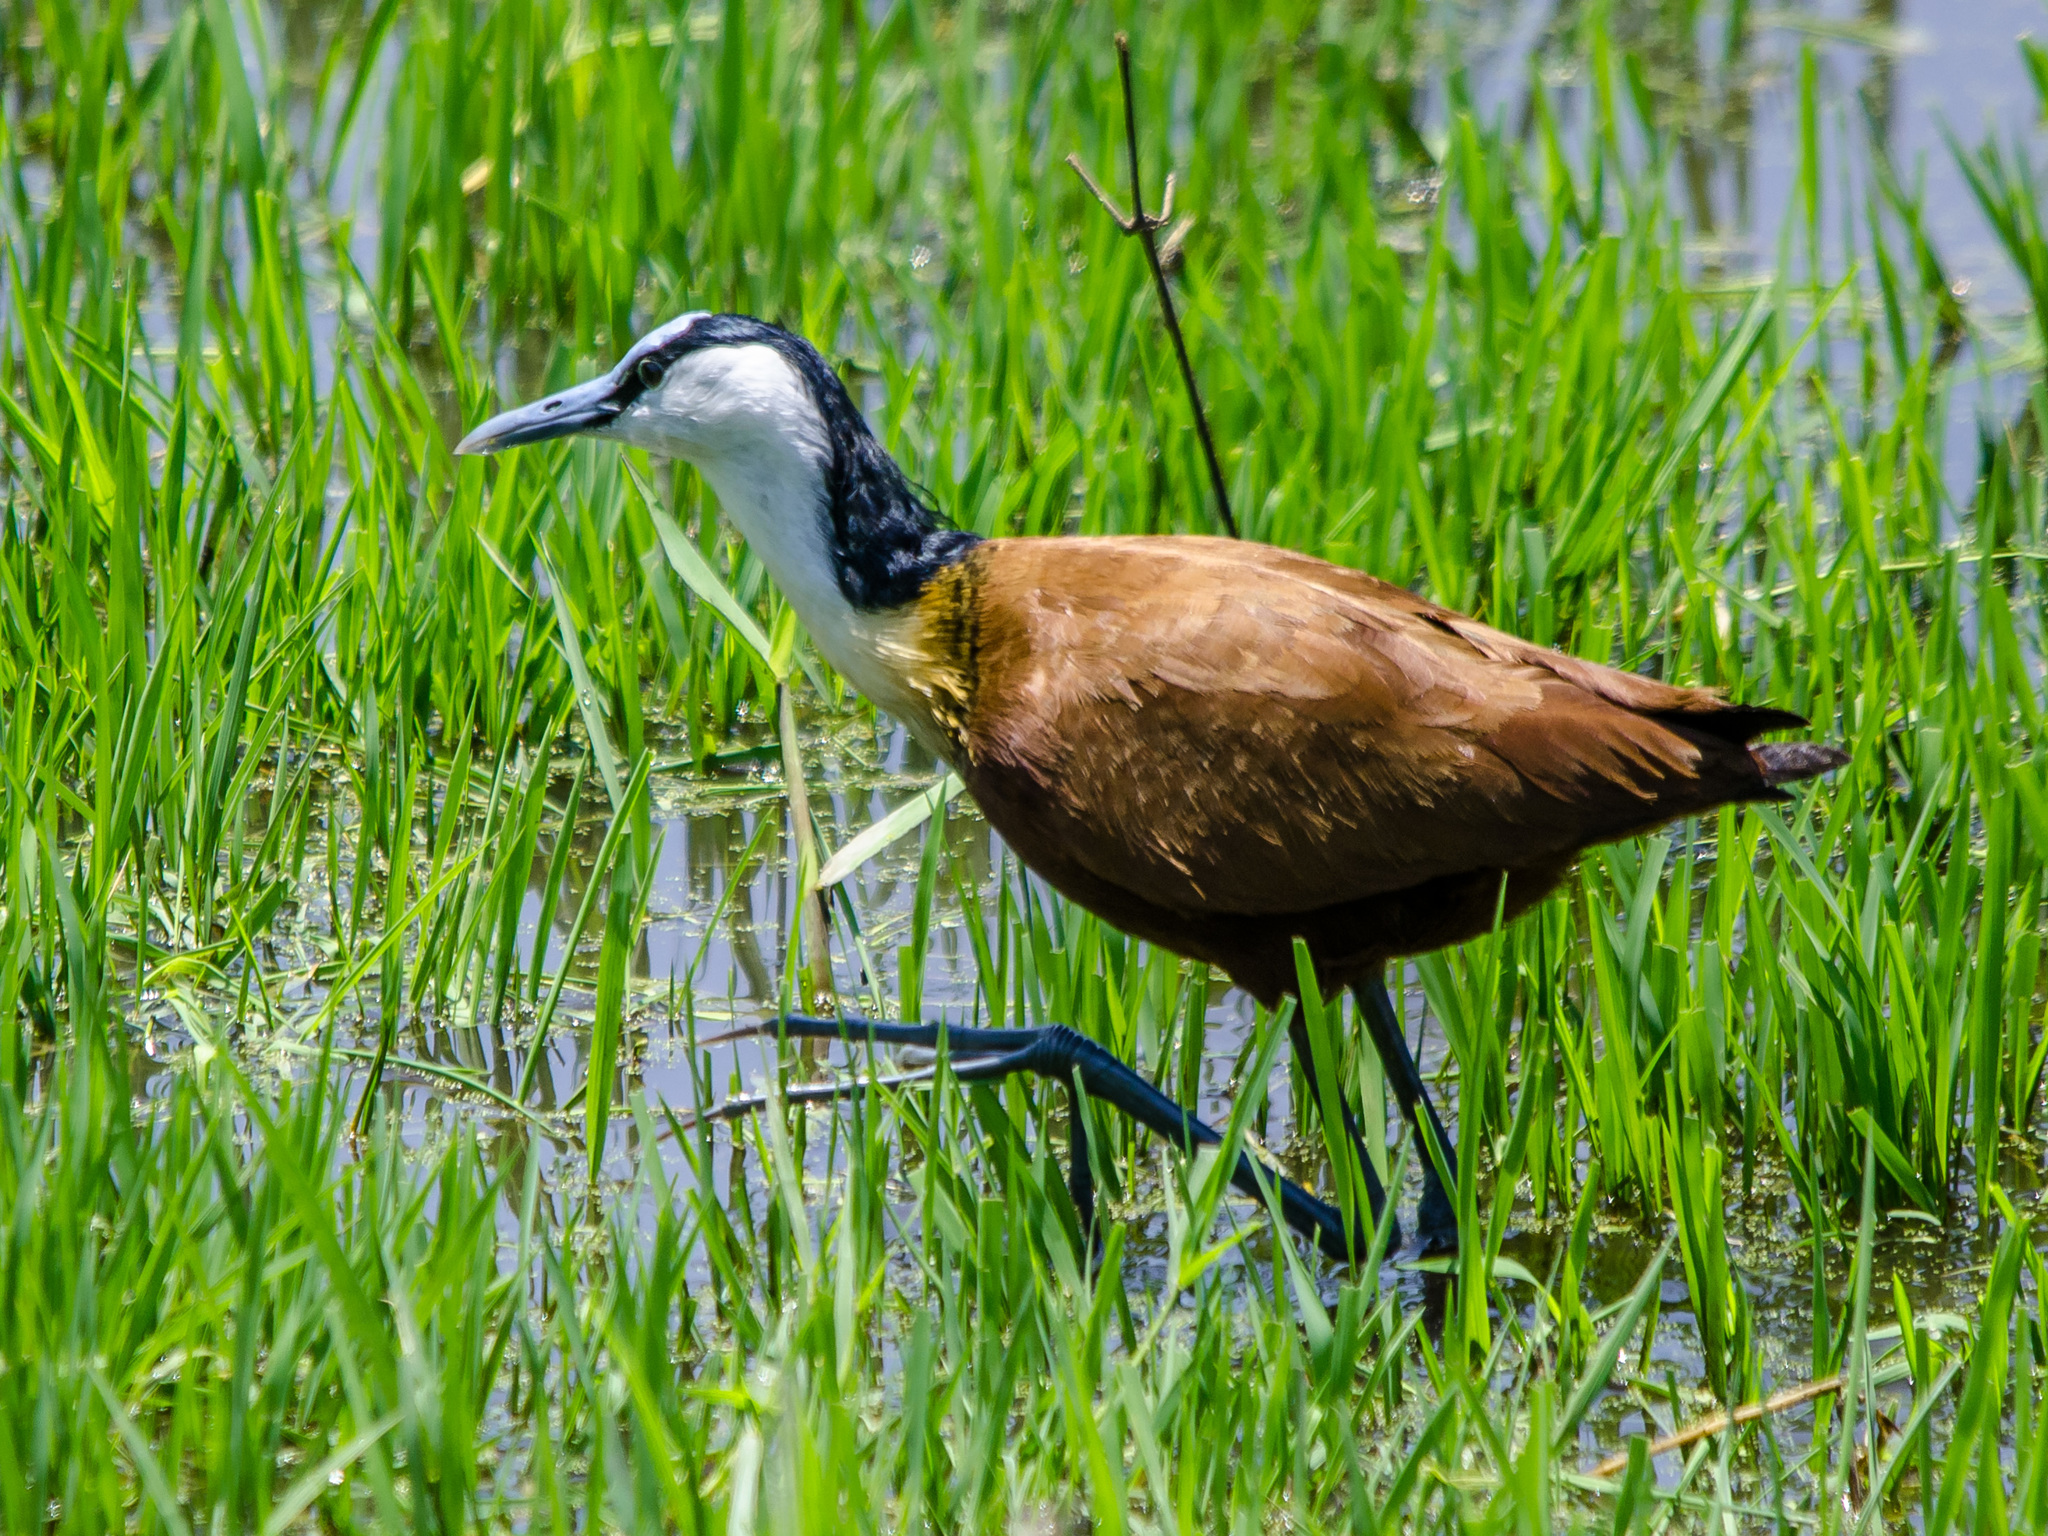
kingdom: Animalia
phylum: Chordata
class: Aves
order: Charadriiformes
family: Jacanidae
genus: Actophilornis
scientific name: Actophilornis africanus
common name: African jacana
